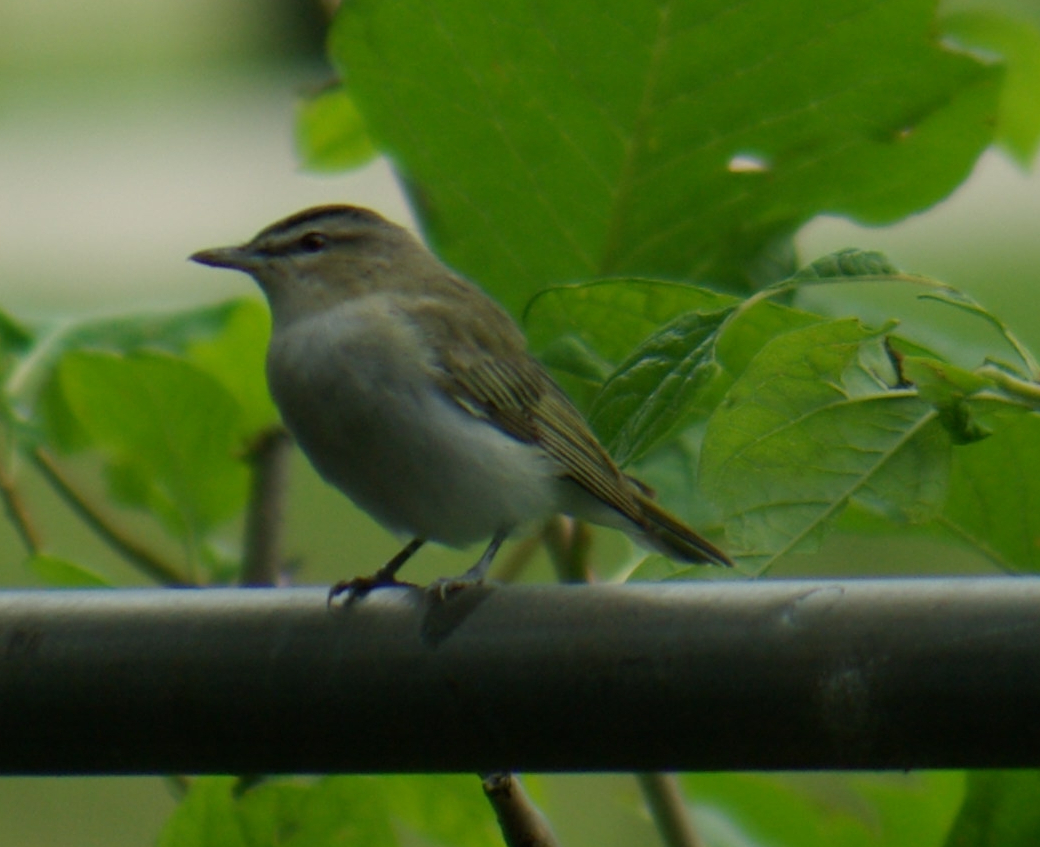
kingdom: Animalia
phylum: Chordata
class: Aves
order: Passeriformes
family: Vireonidae
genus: Vireo
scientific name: Vireo olivaceus
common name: Red-eyed vireo
